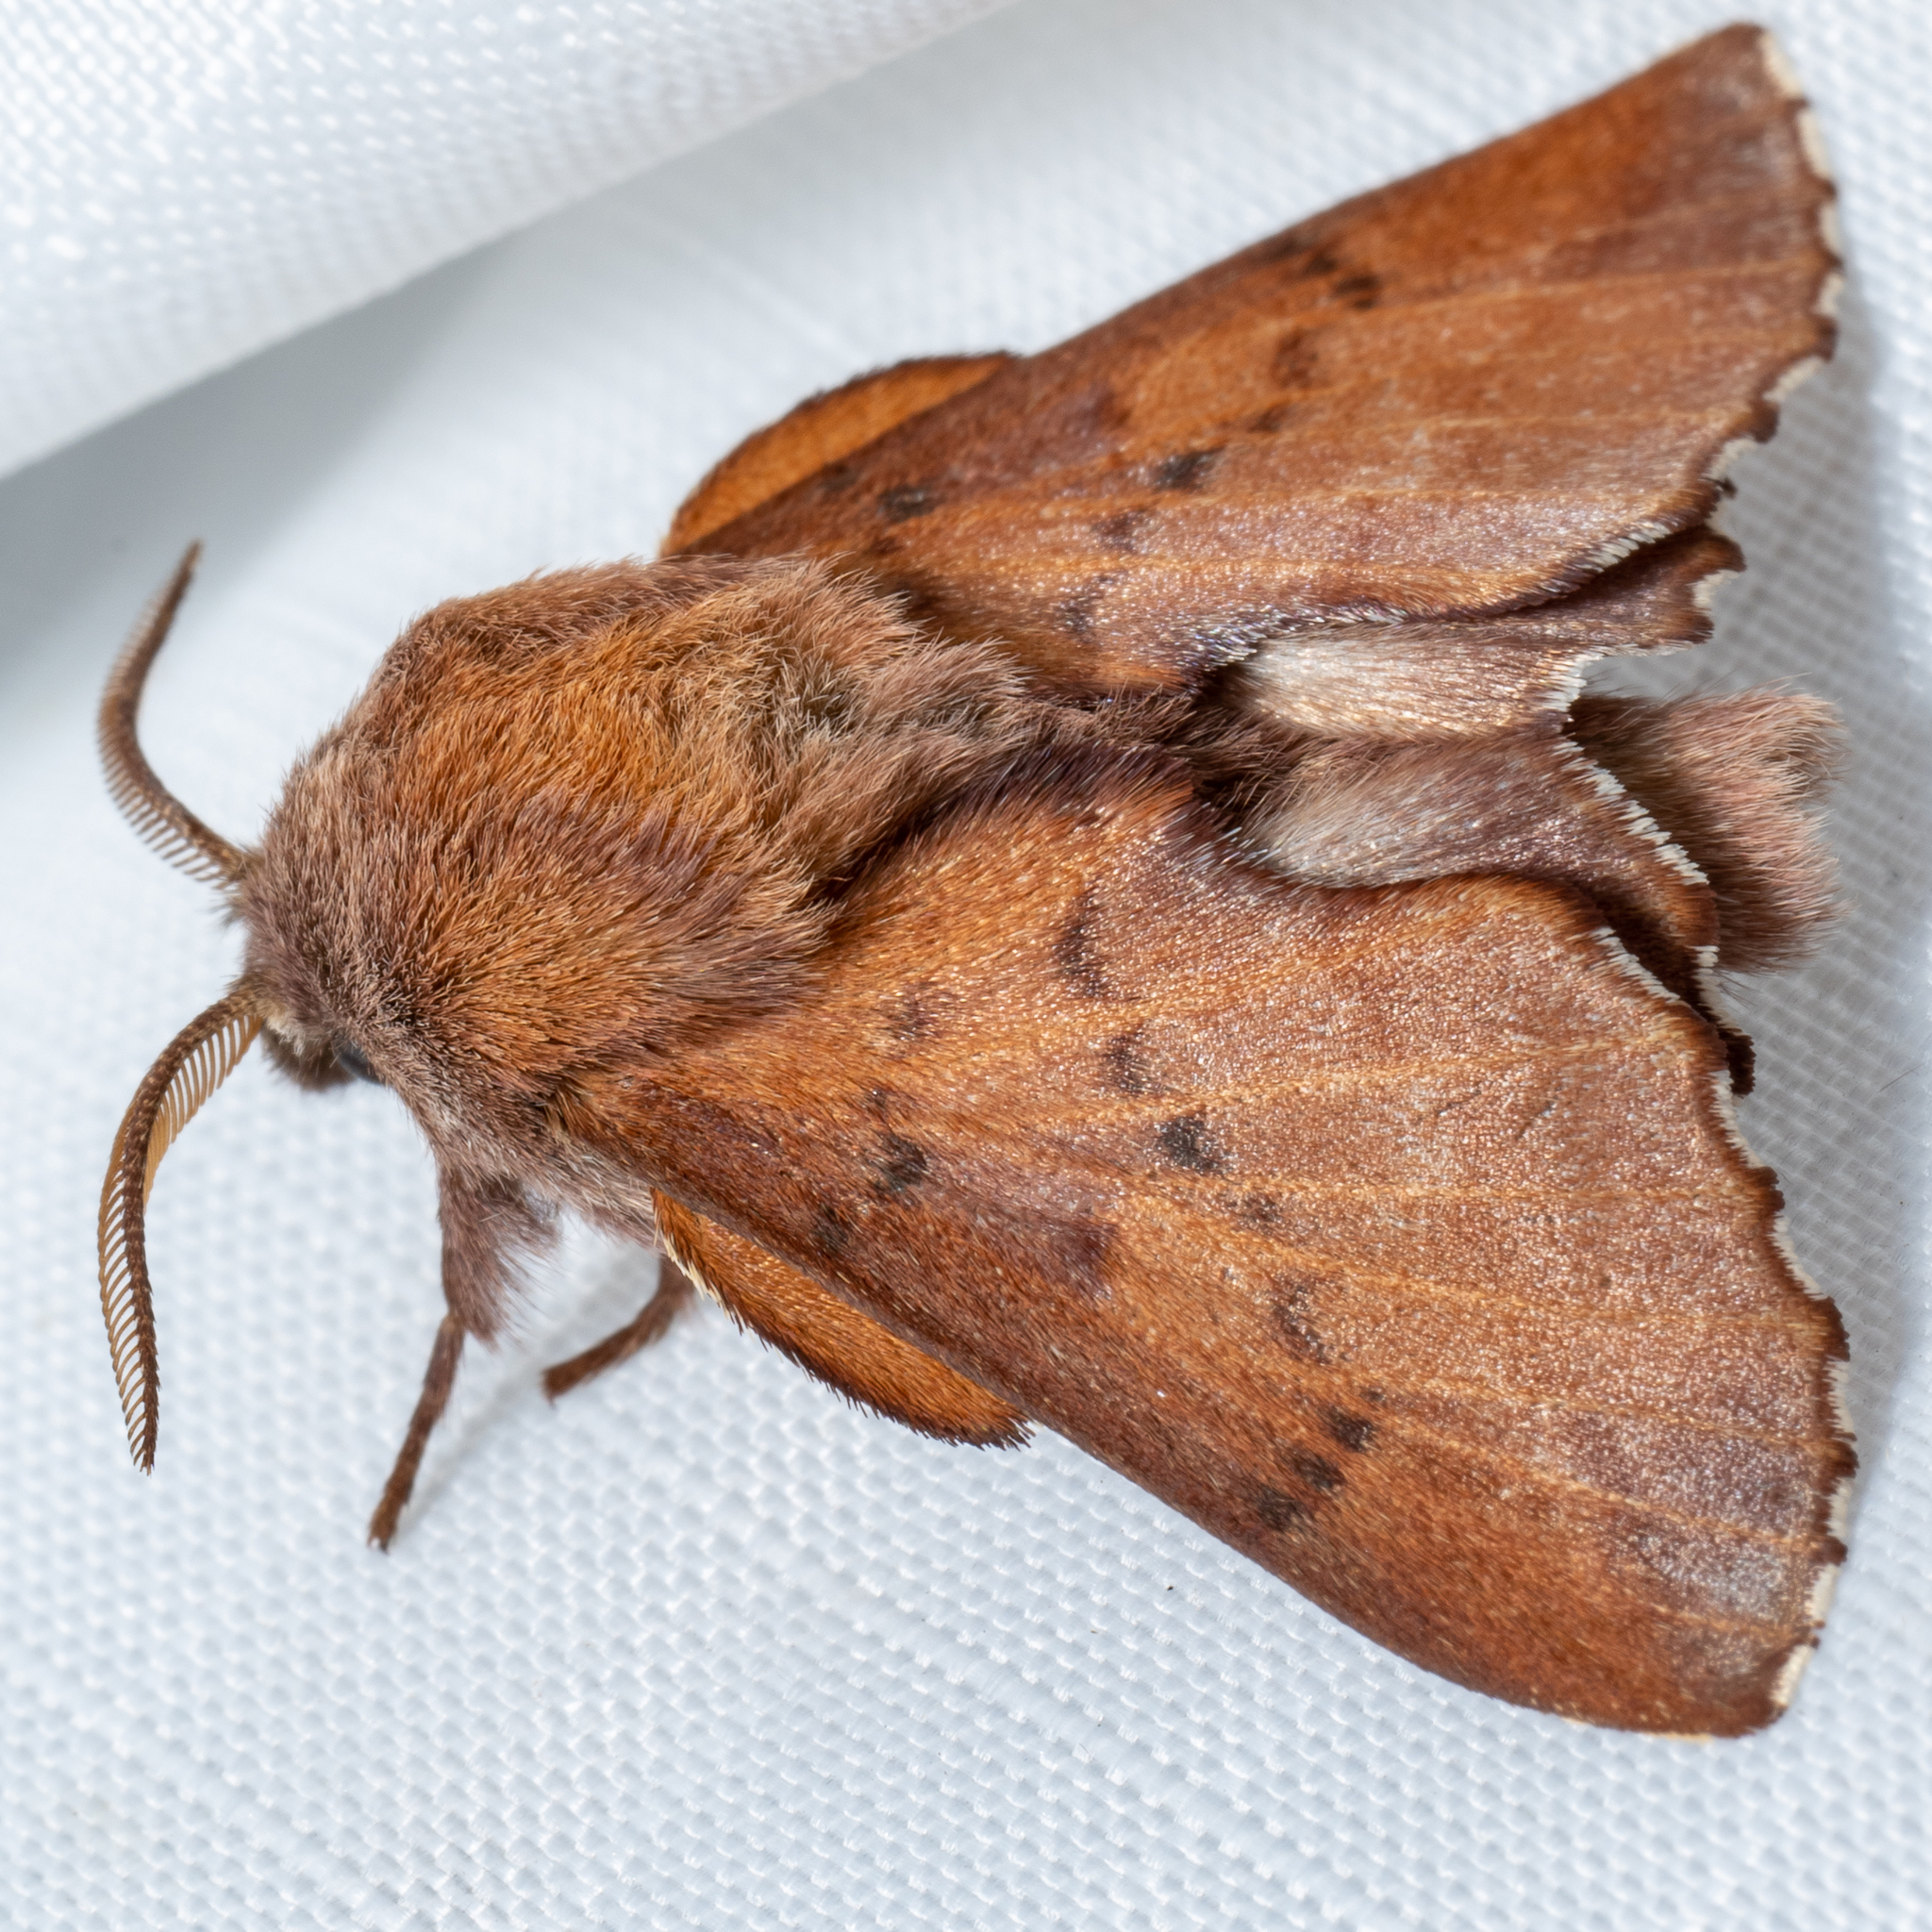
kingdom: Animalia
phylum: Arthropoda
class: Insecta
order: Lepidoptera
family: Lasiocampidae
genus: Phyllodesma
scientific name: Phyllodesma americana
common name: American lappet moth
